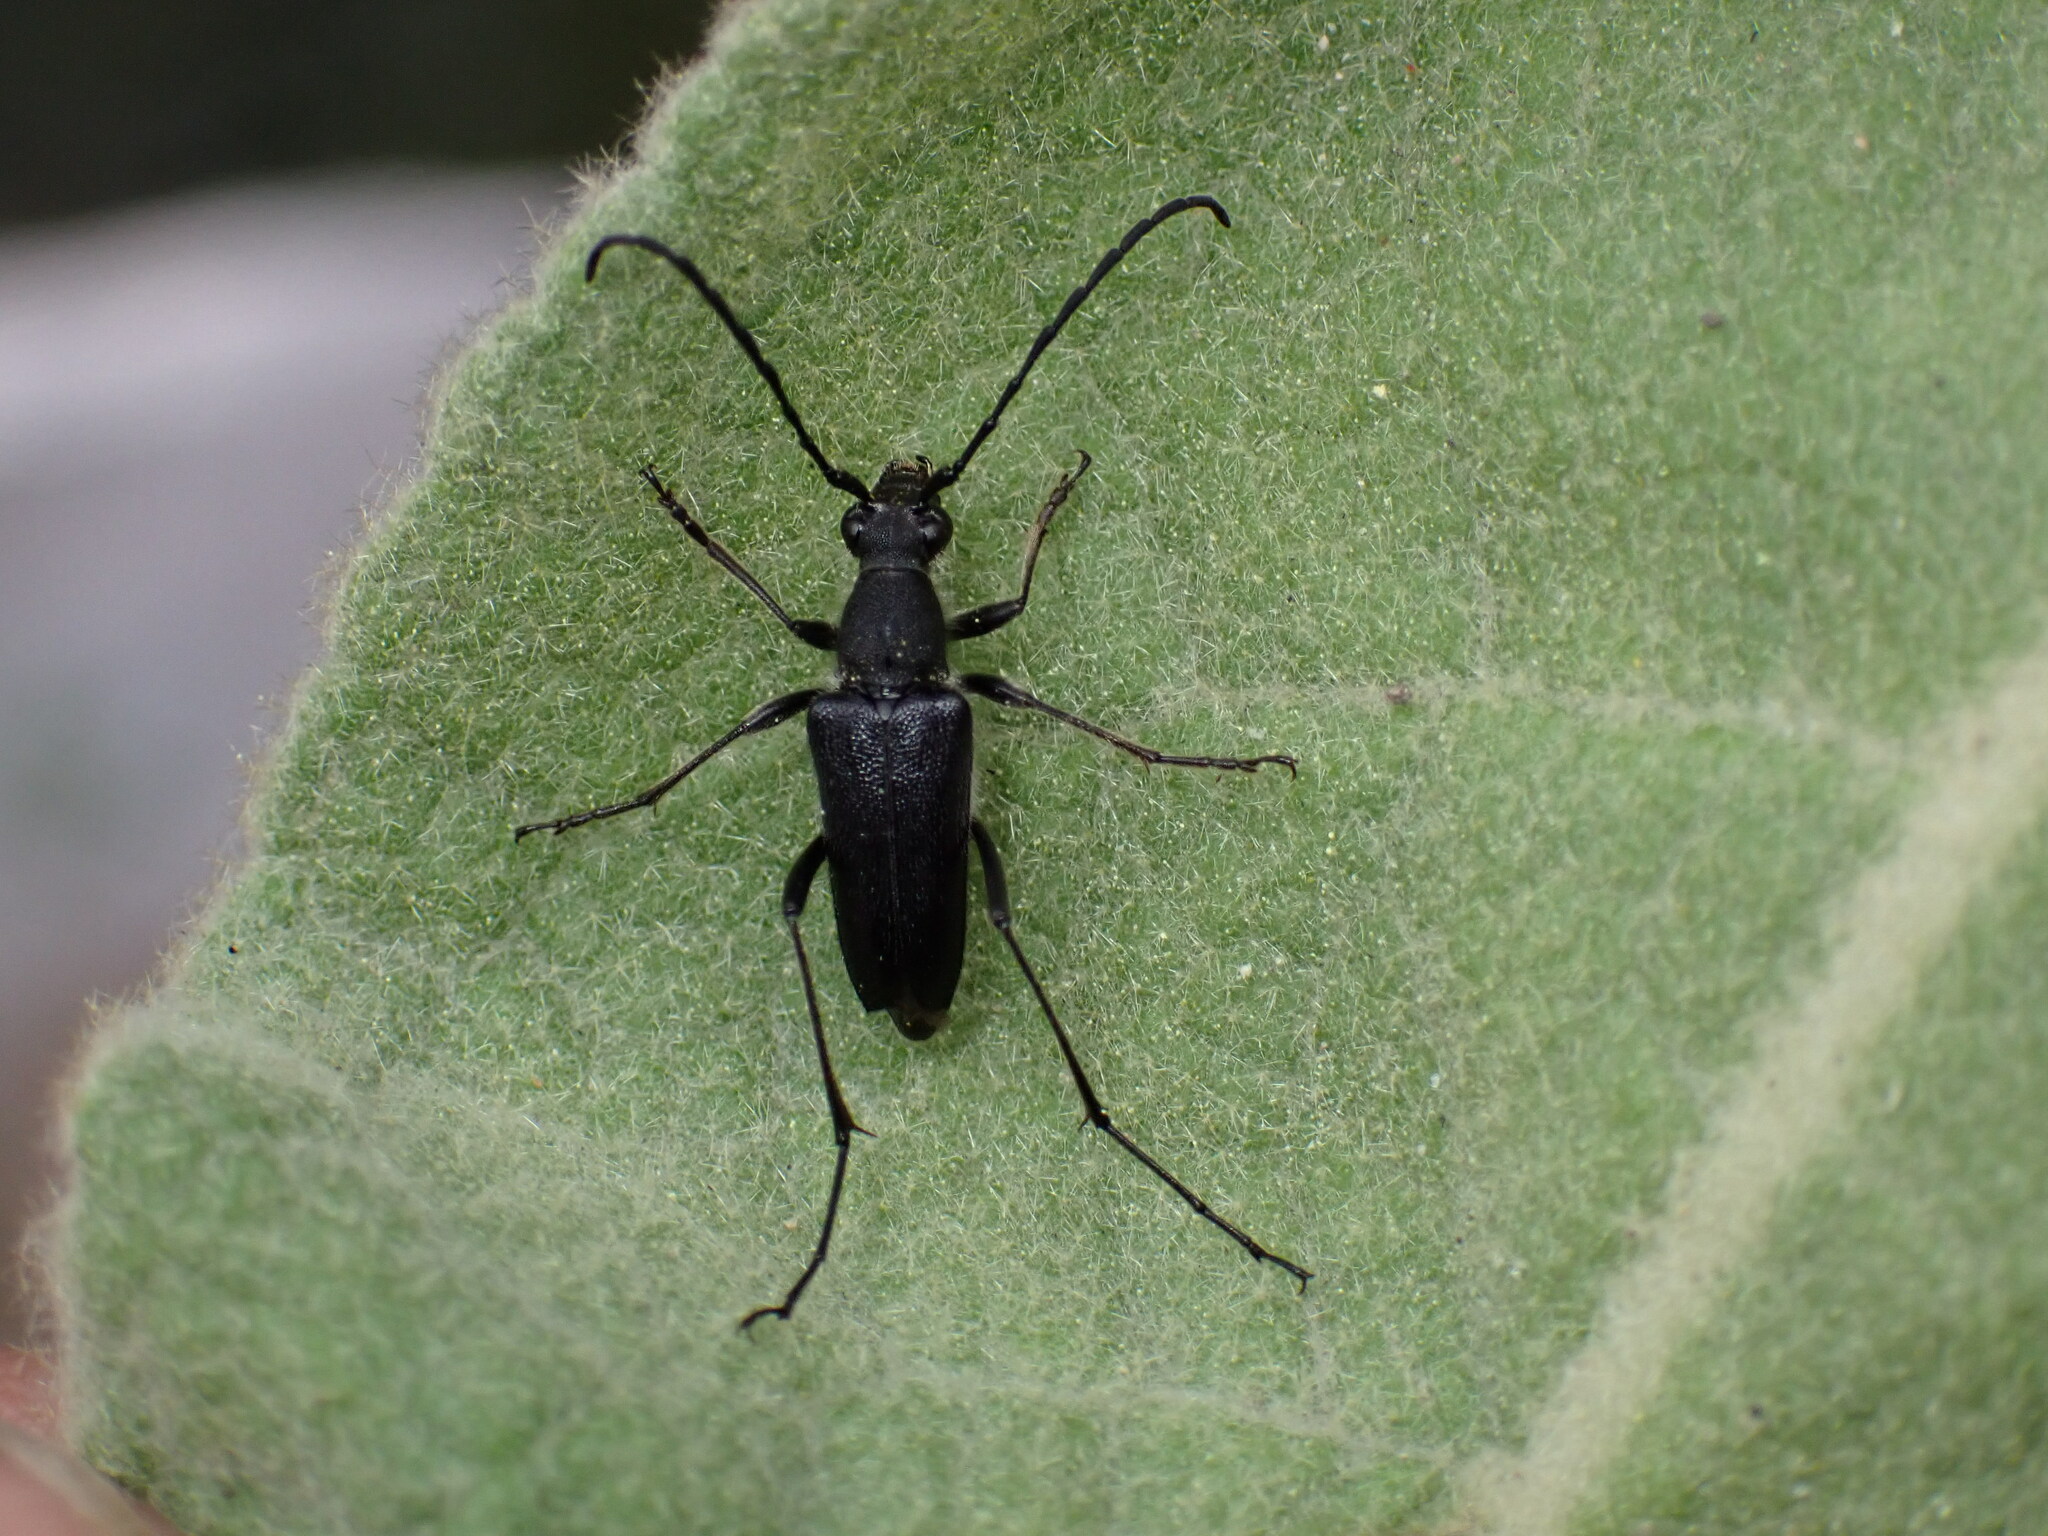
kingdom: Animalia
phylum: Arthropoda
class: Insecta
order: Coleoptera
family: Cerambycidae
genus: Anastrangalia
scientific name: Anastrangalia laetifica
